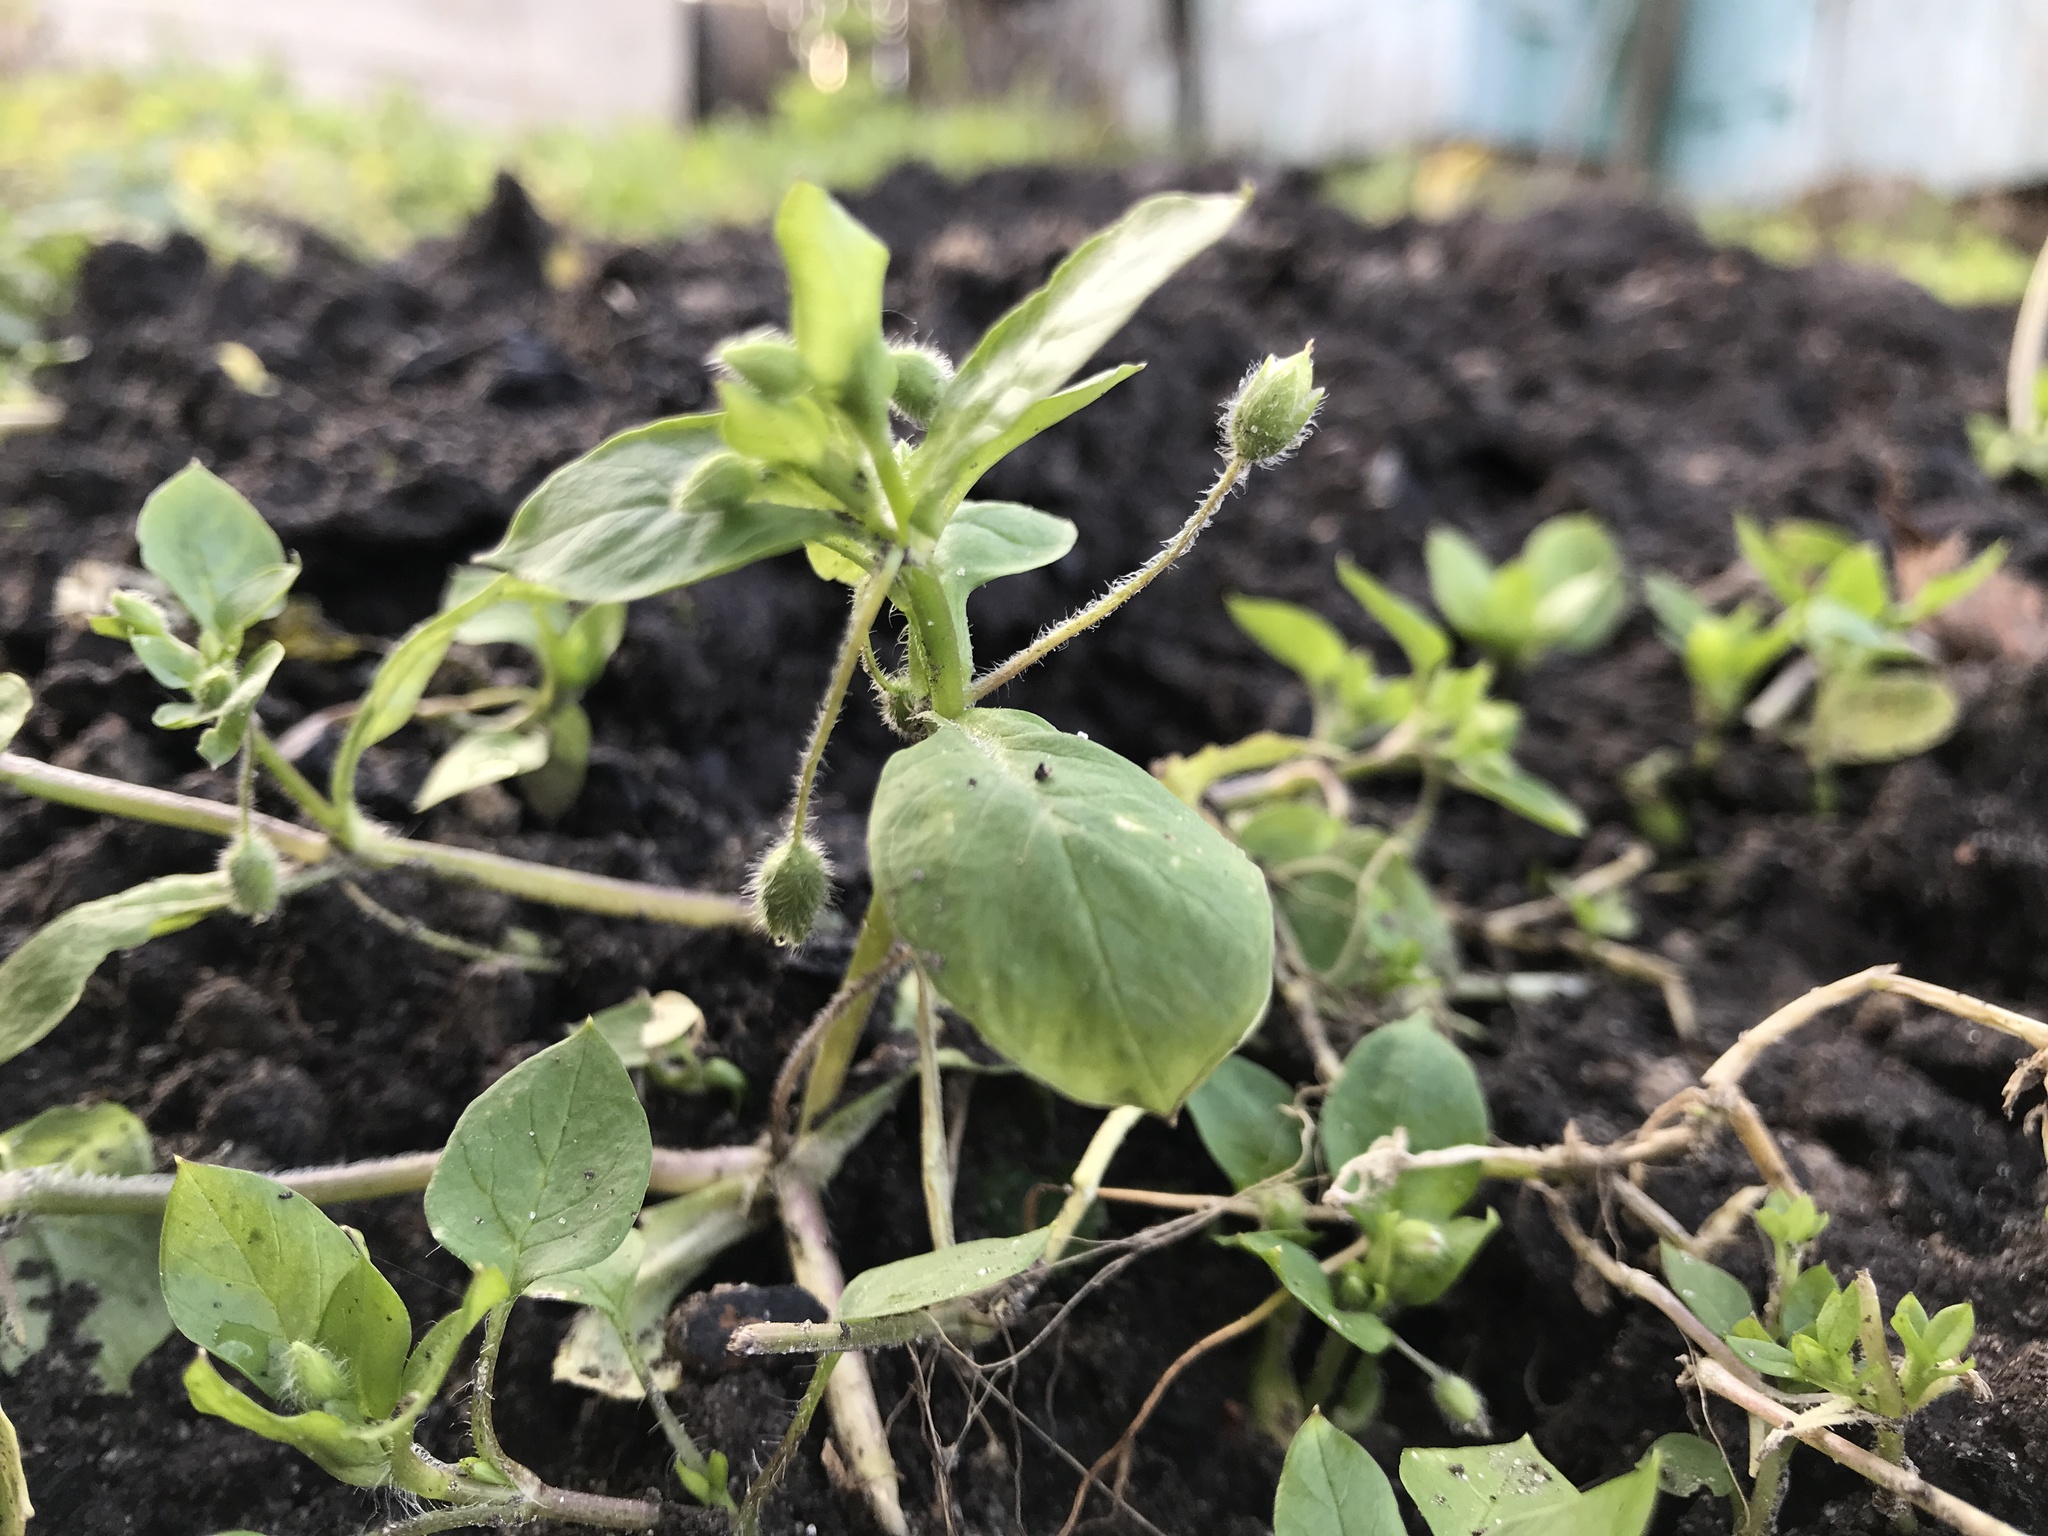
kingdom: Plantae
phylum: Tracheophyta
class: Magnoliopsida
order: Caryophyllales
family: Caryophyllaceae
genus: Stellaria
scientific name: Stellaria media
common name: Common chickweed
